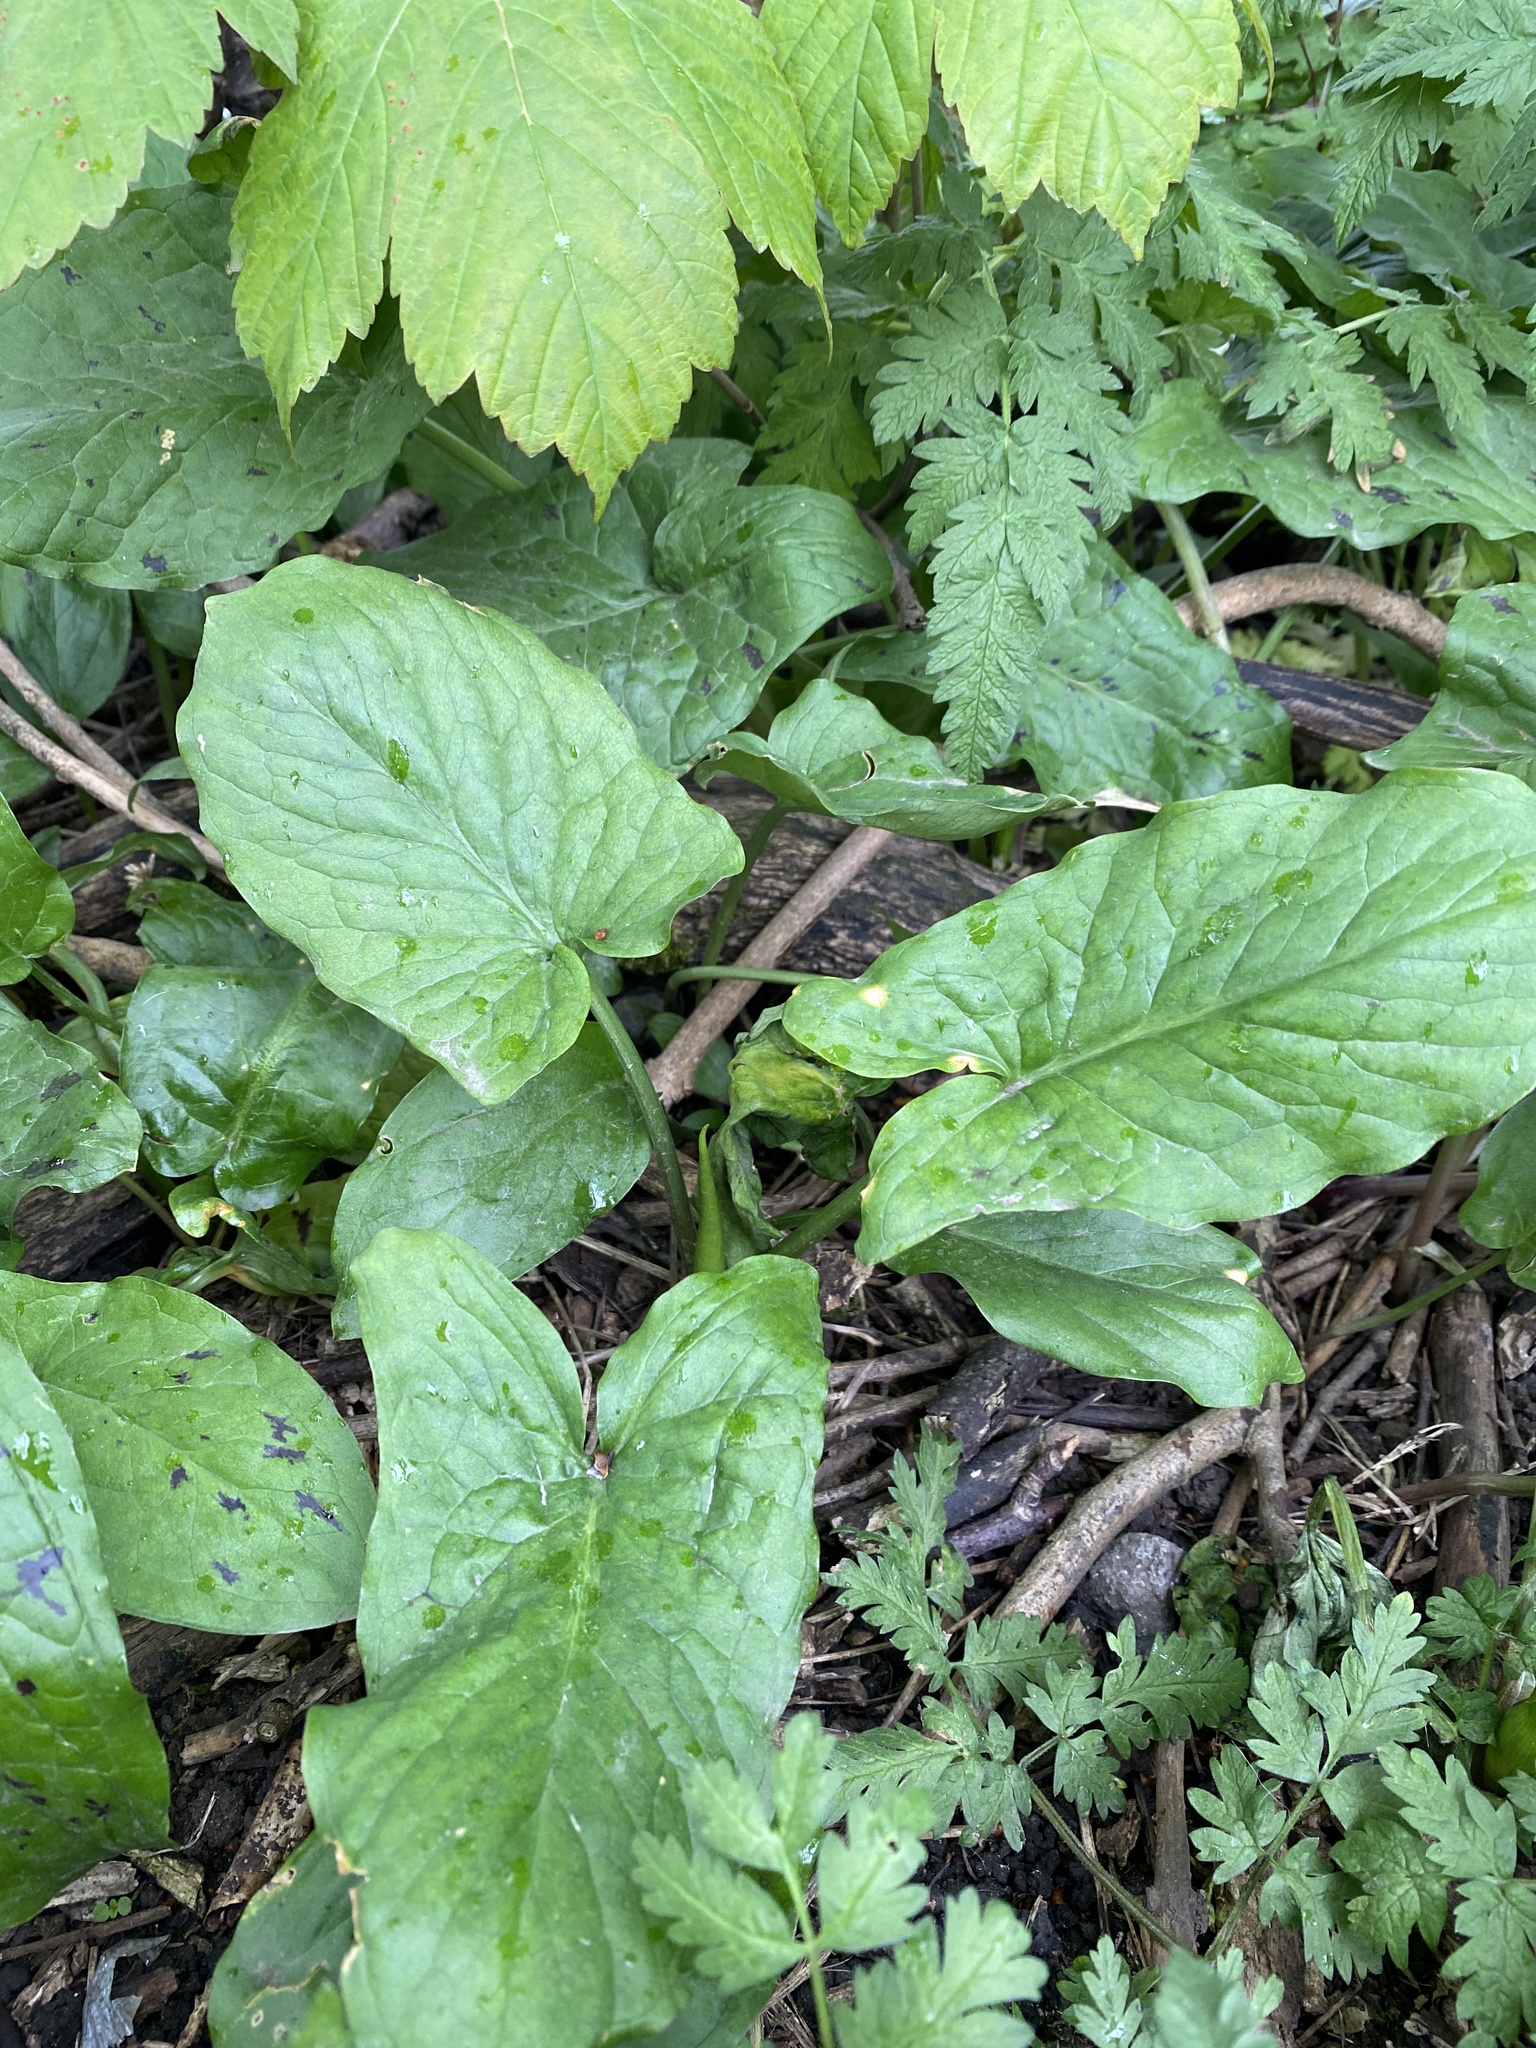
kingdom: Plantae
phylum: Tracheophyta
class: Liliopsida
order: Alismatales
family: Araceae
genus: Arum
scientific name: Arum maculatum
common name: Lords-and-ladies
